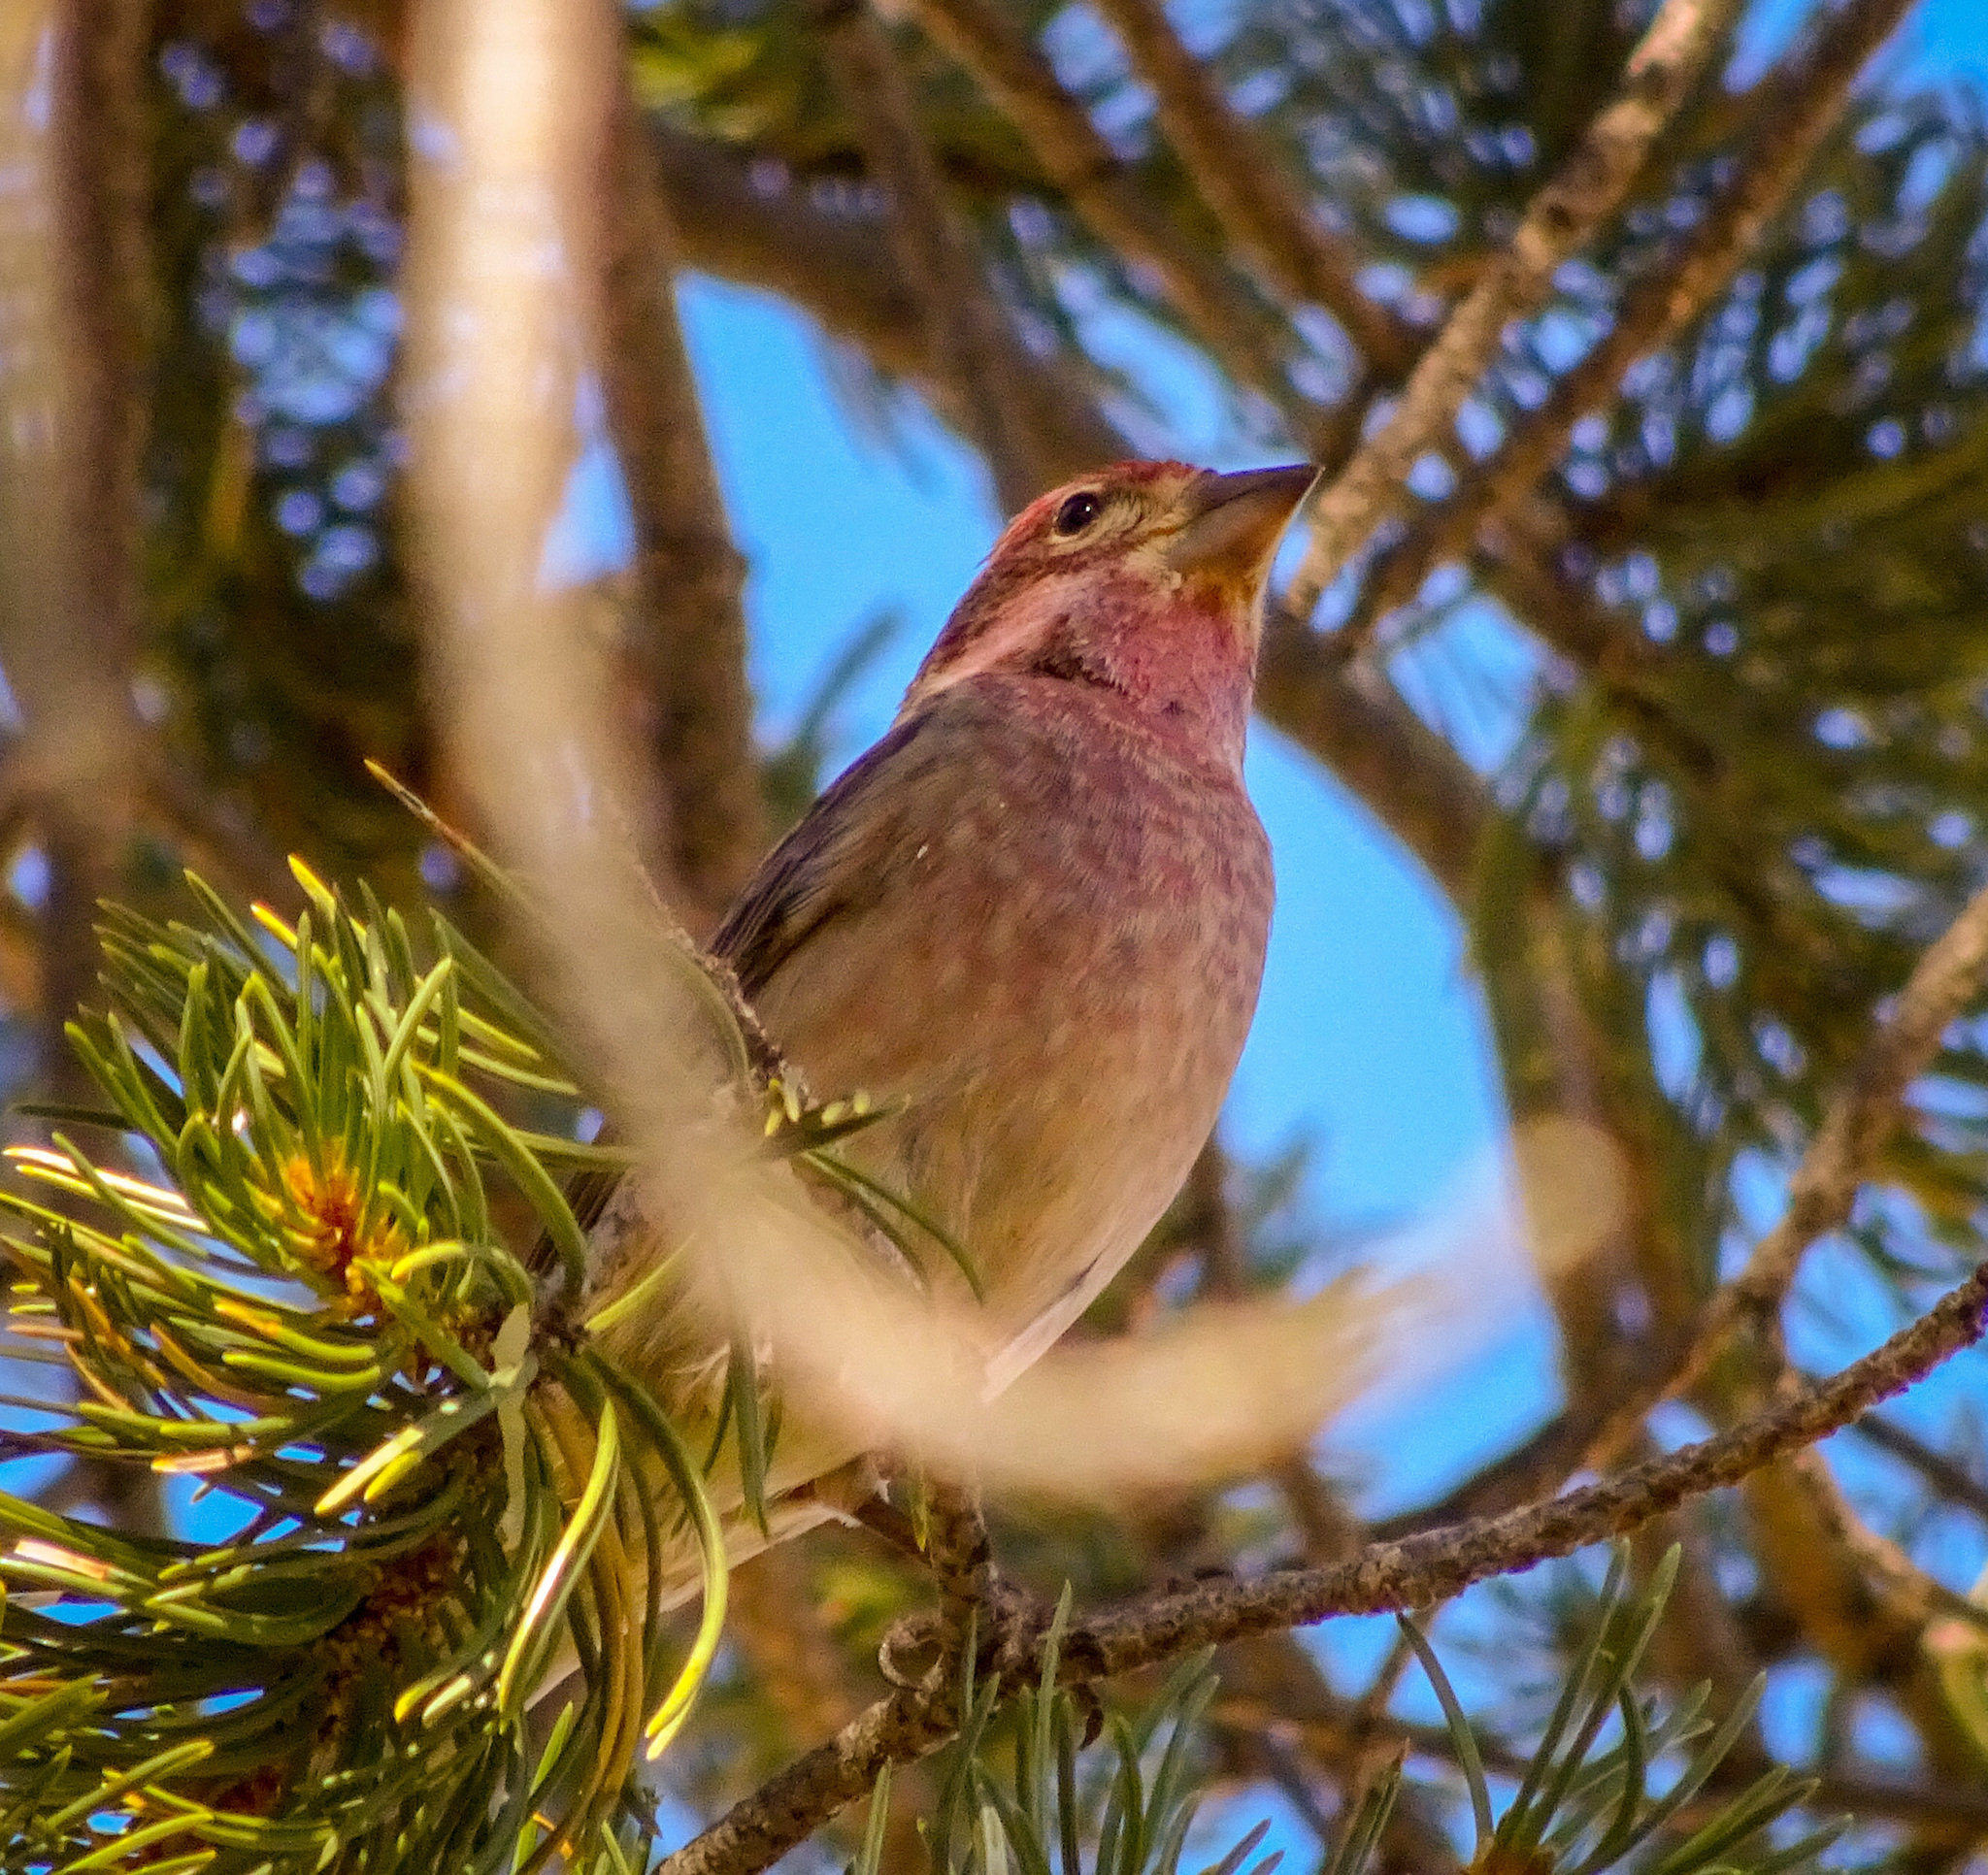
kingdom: Animalia
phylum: Chordata
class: Aves
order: Passeriformes
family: Fringillidae
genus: Haemorhous
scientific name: Haemorhous cassinii
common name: Cassin's finch
